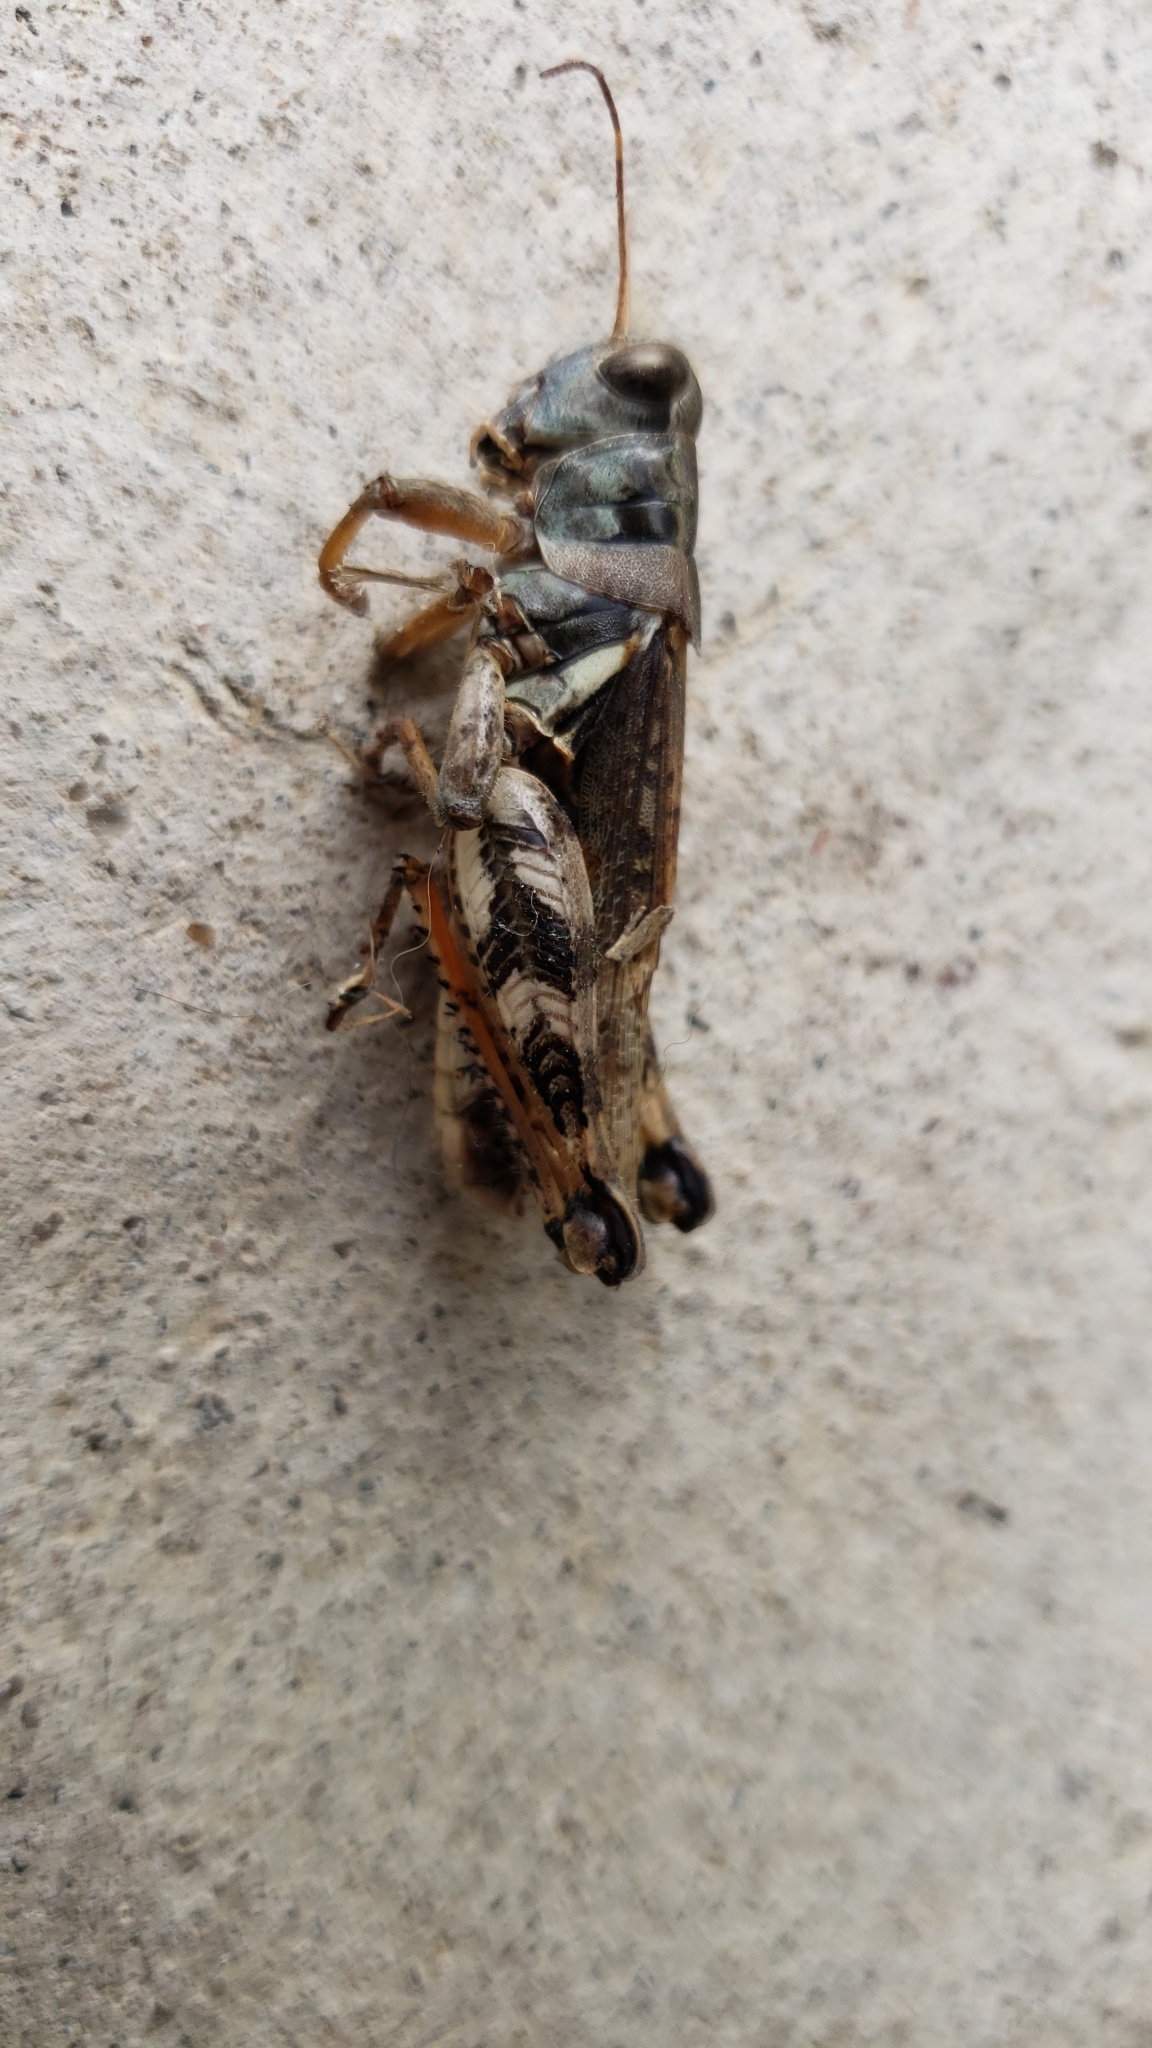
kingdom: Animalia
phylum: Arthropoda
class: Insecta
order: Orthoptera
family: Acrididae
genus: Melanoplus
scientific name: Melanoplus ponderosus
